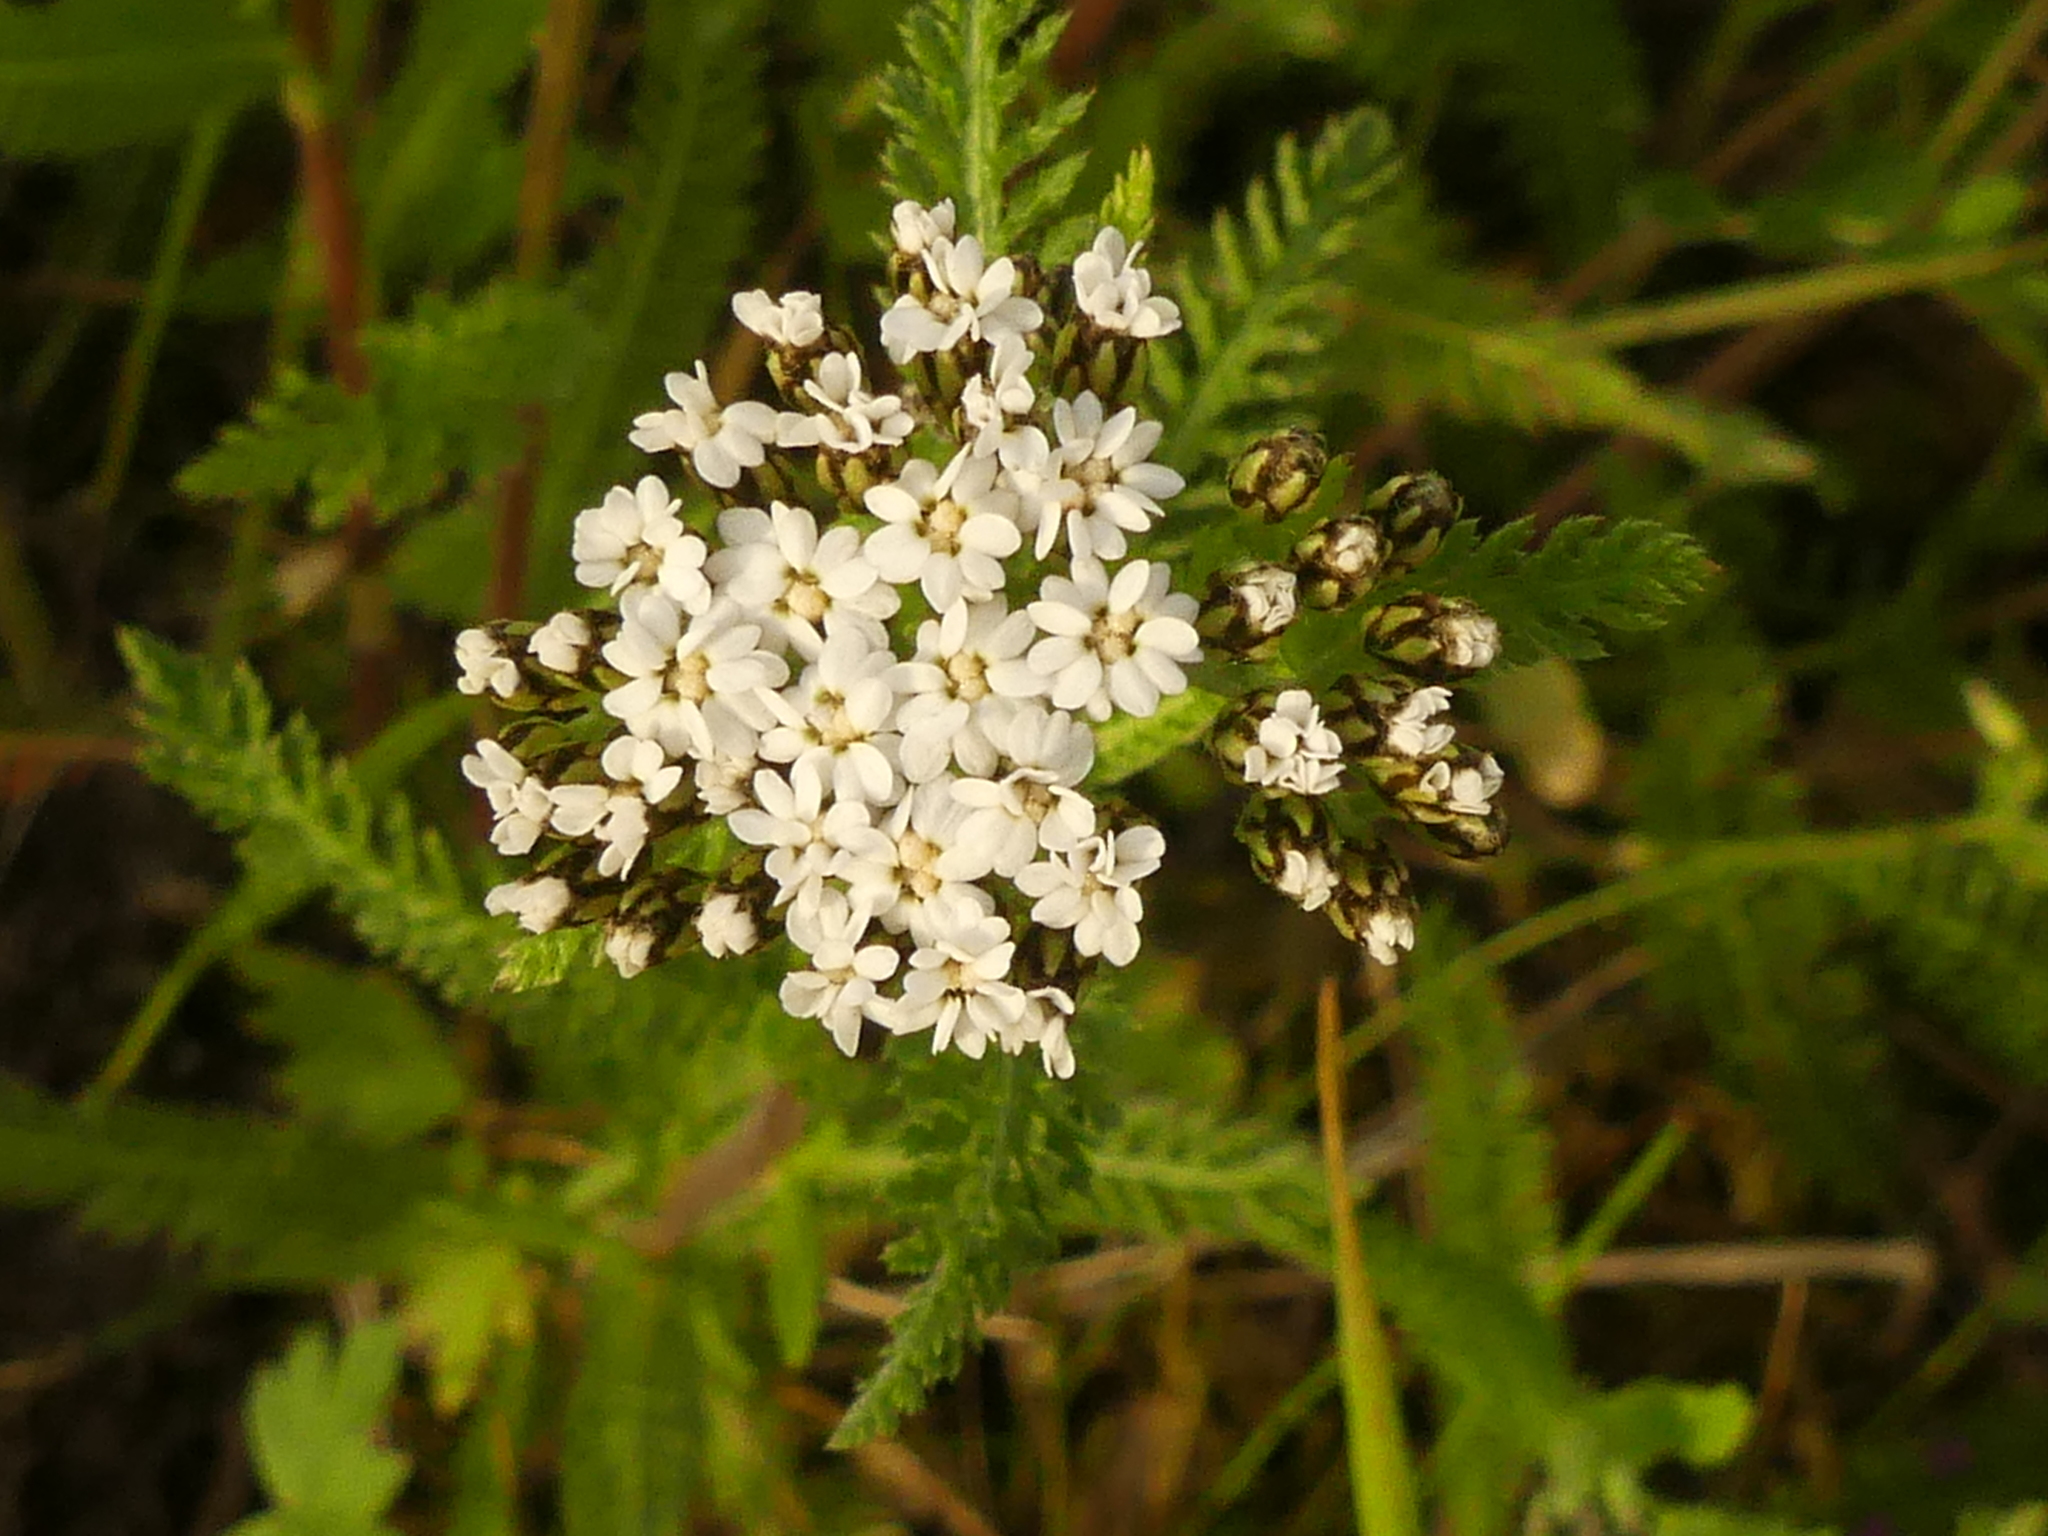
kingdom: Plantae
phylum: Tracheophyta
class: Magnoliopsida
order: Asterales
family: Asteraceae
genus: Achillea
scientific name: Achillea millefolium
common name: Yarrow
